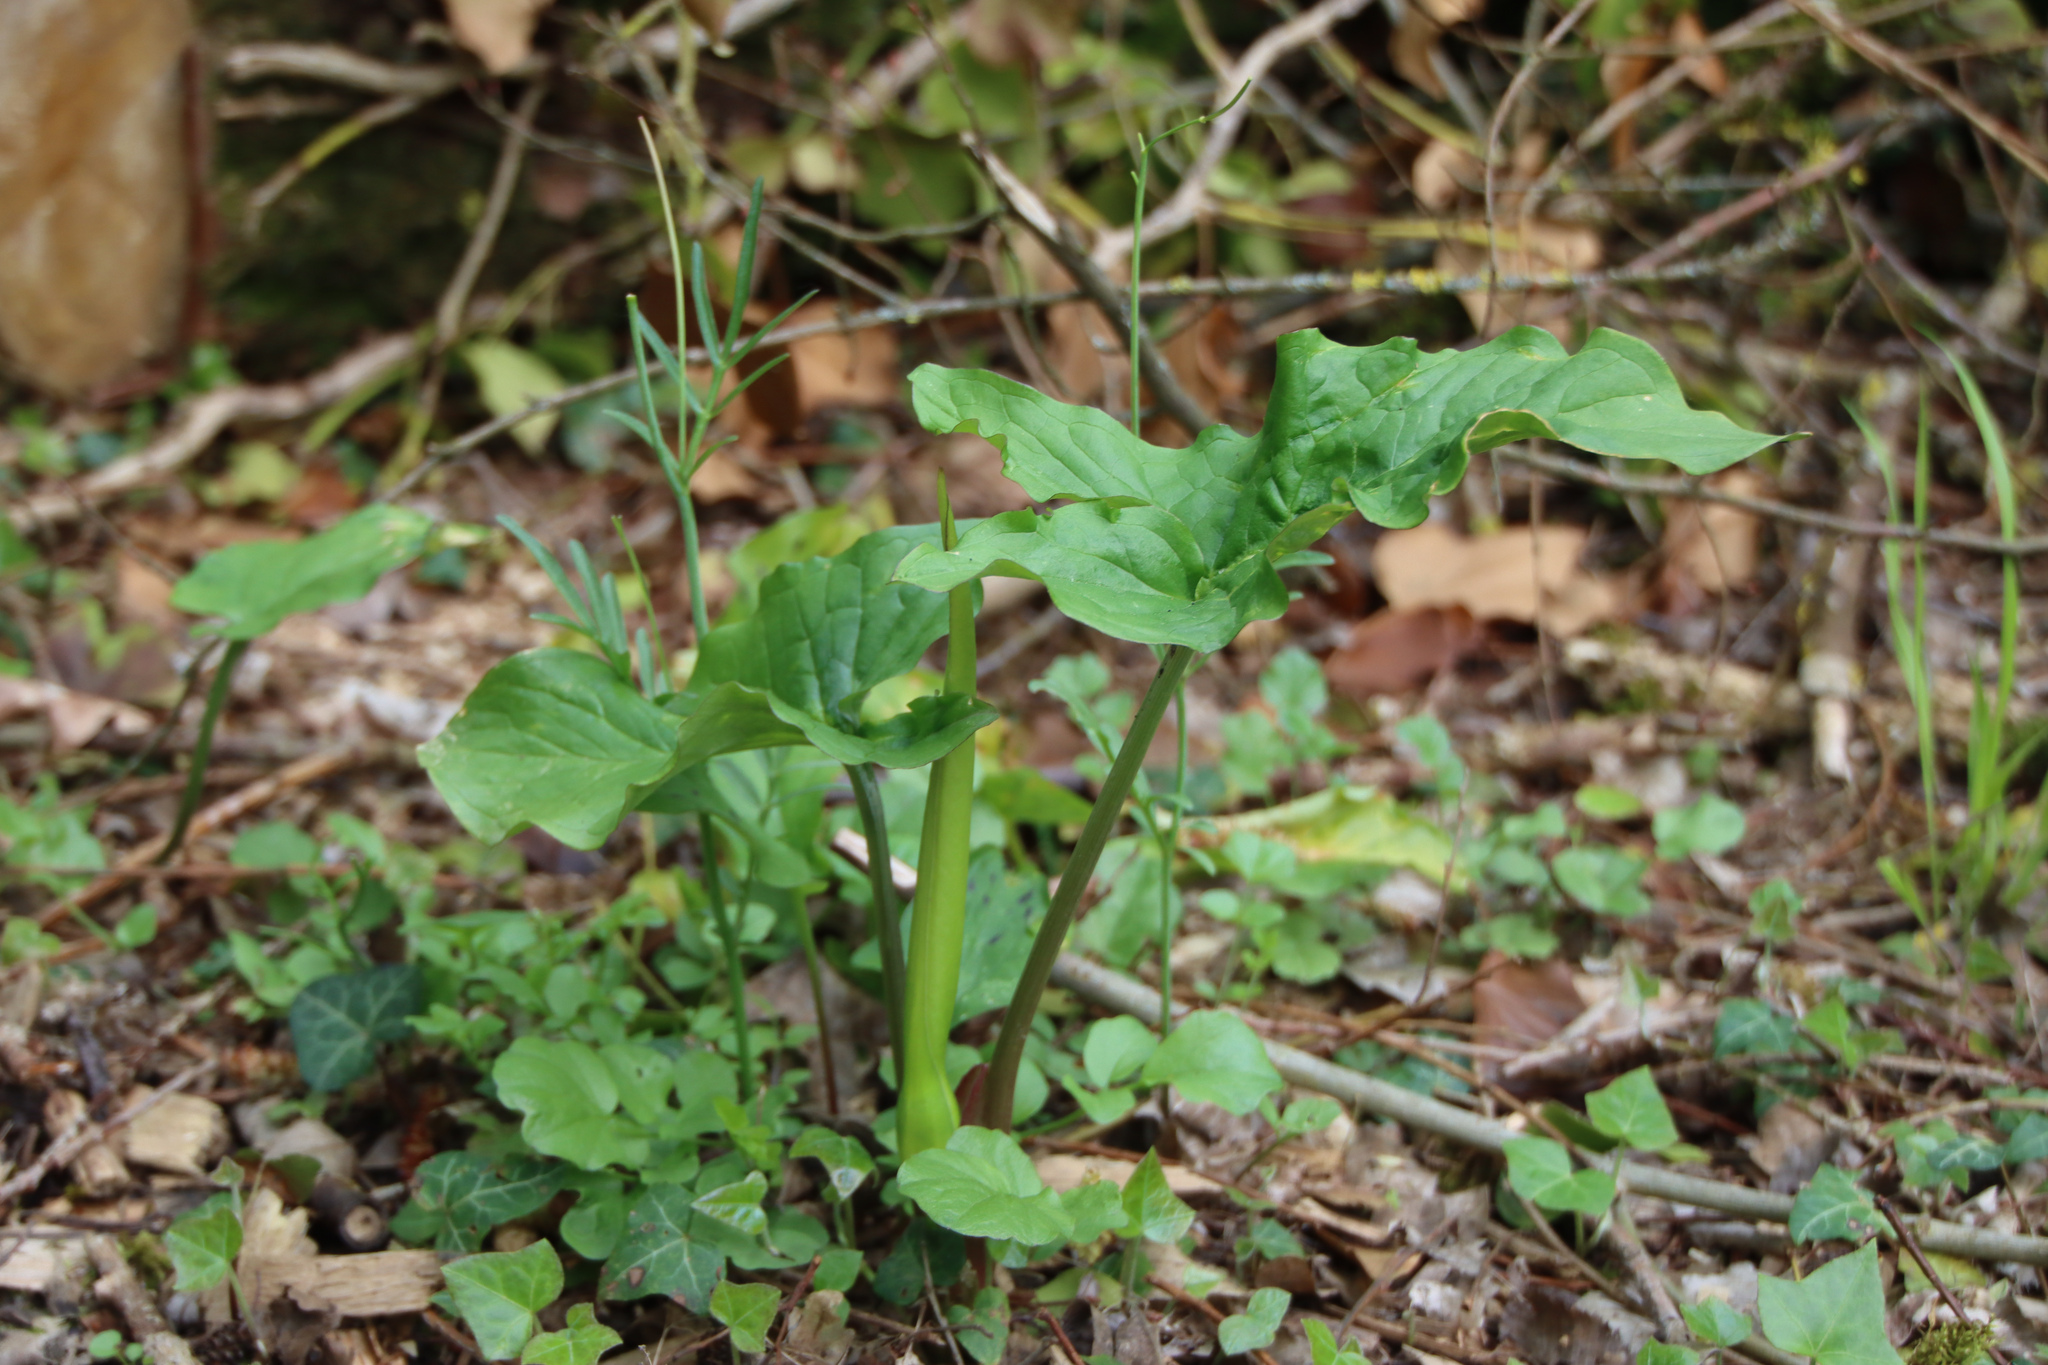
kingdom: Plantae
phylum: Tracheophyta
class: Liliopsida
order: Alismatales
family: Araceae
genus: Arum
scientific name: Arum maculatum
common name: Lords-and-ladies
